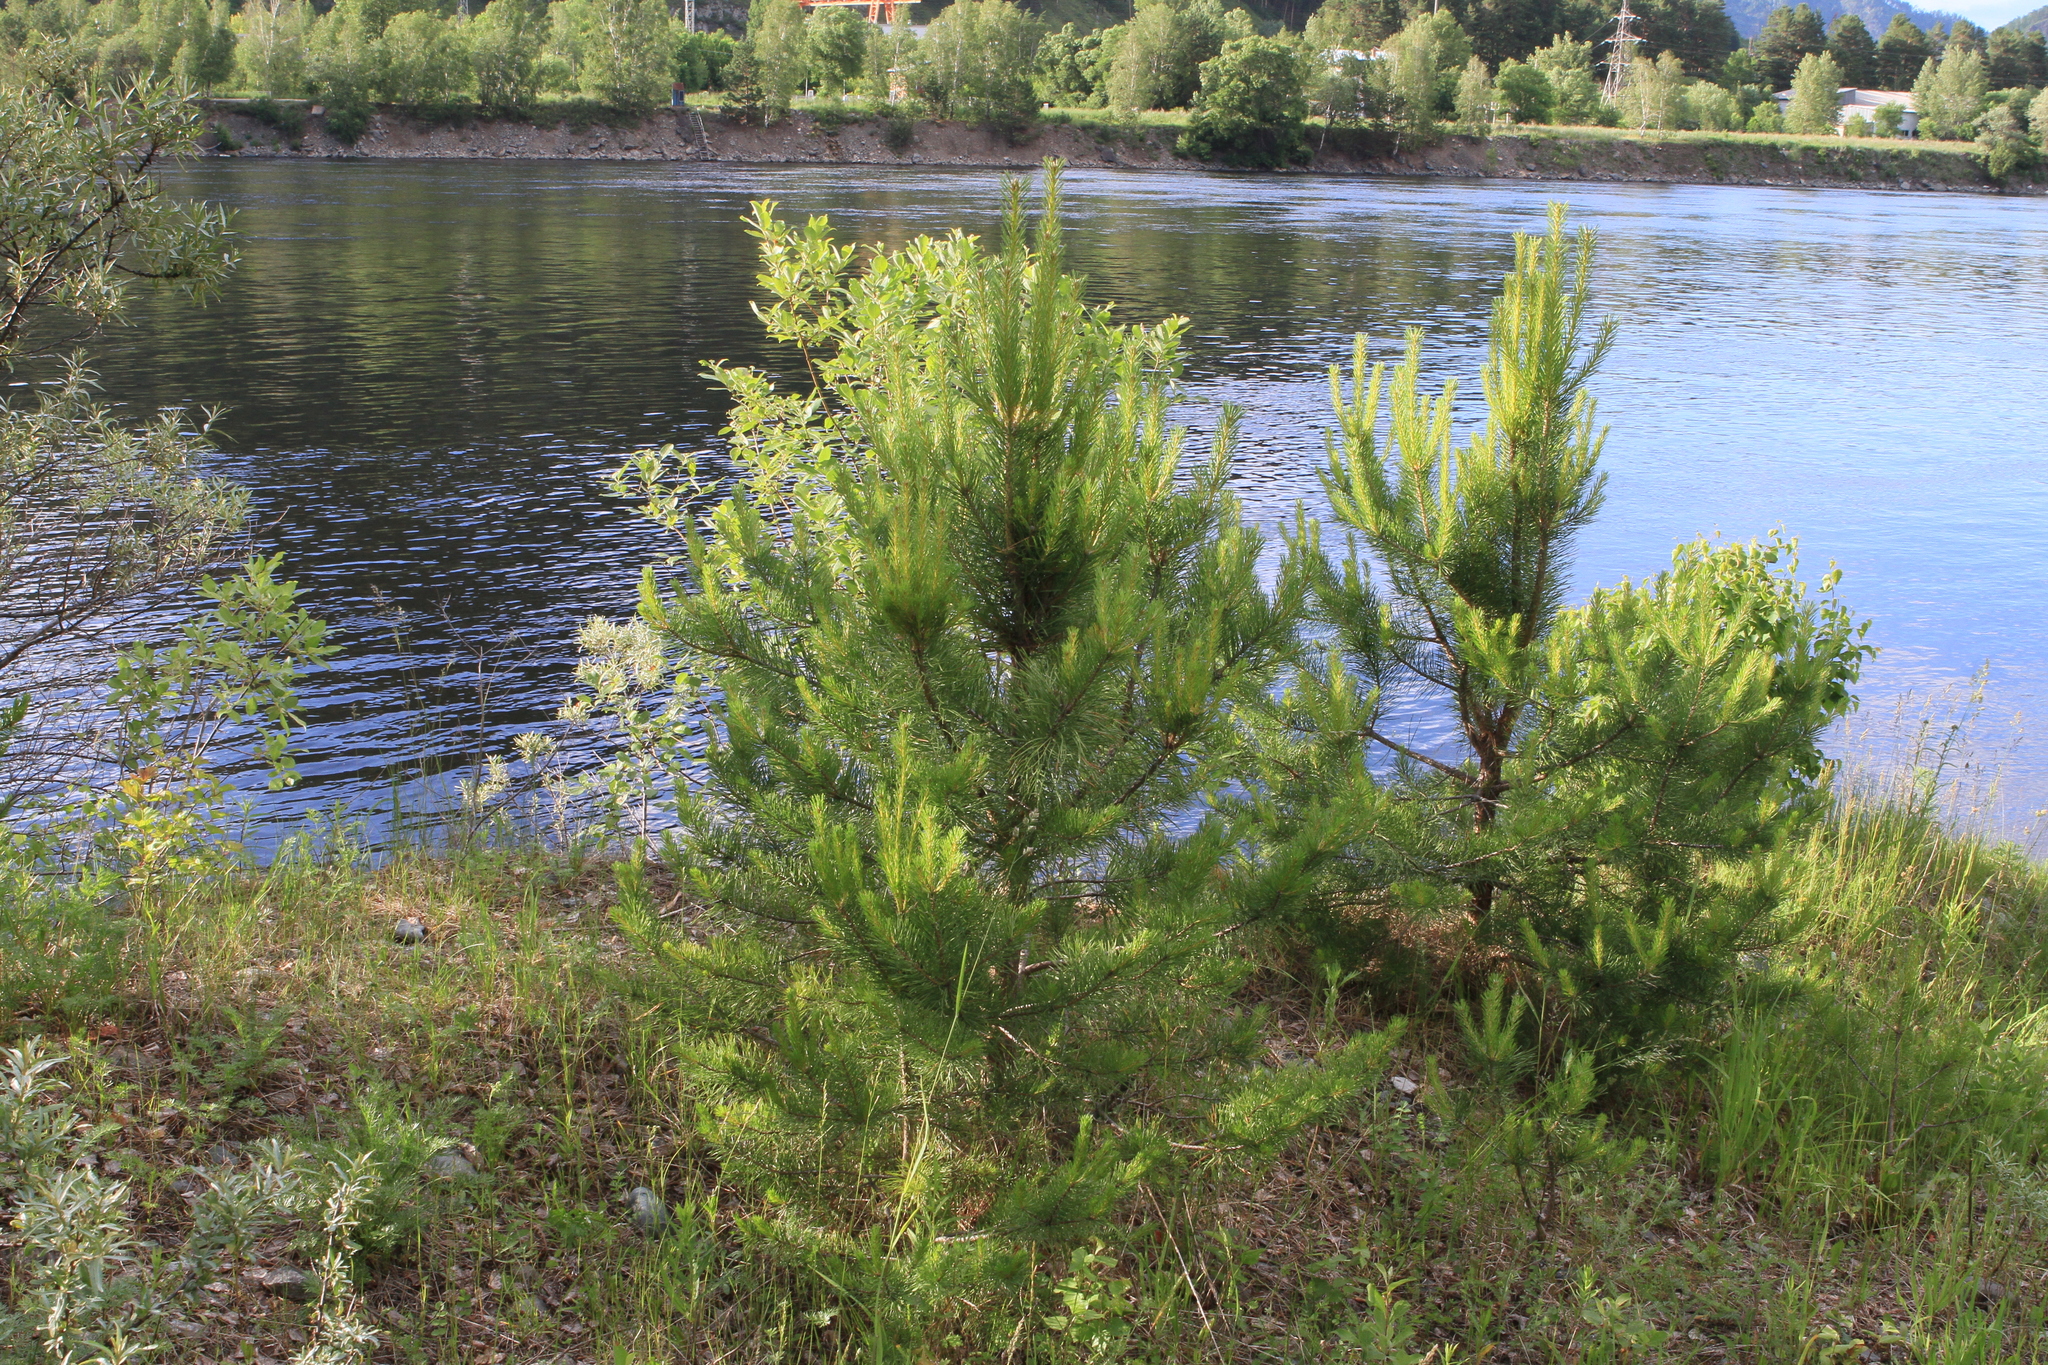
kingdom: Plantae
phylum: Tracheophyta
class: Pinopsida
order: Pinales
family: Pinaceae
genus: Pinus
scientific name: Pinus sylvestris
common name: Scots pine
